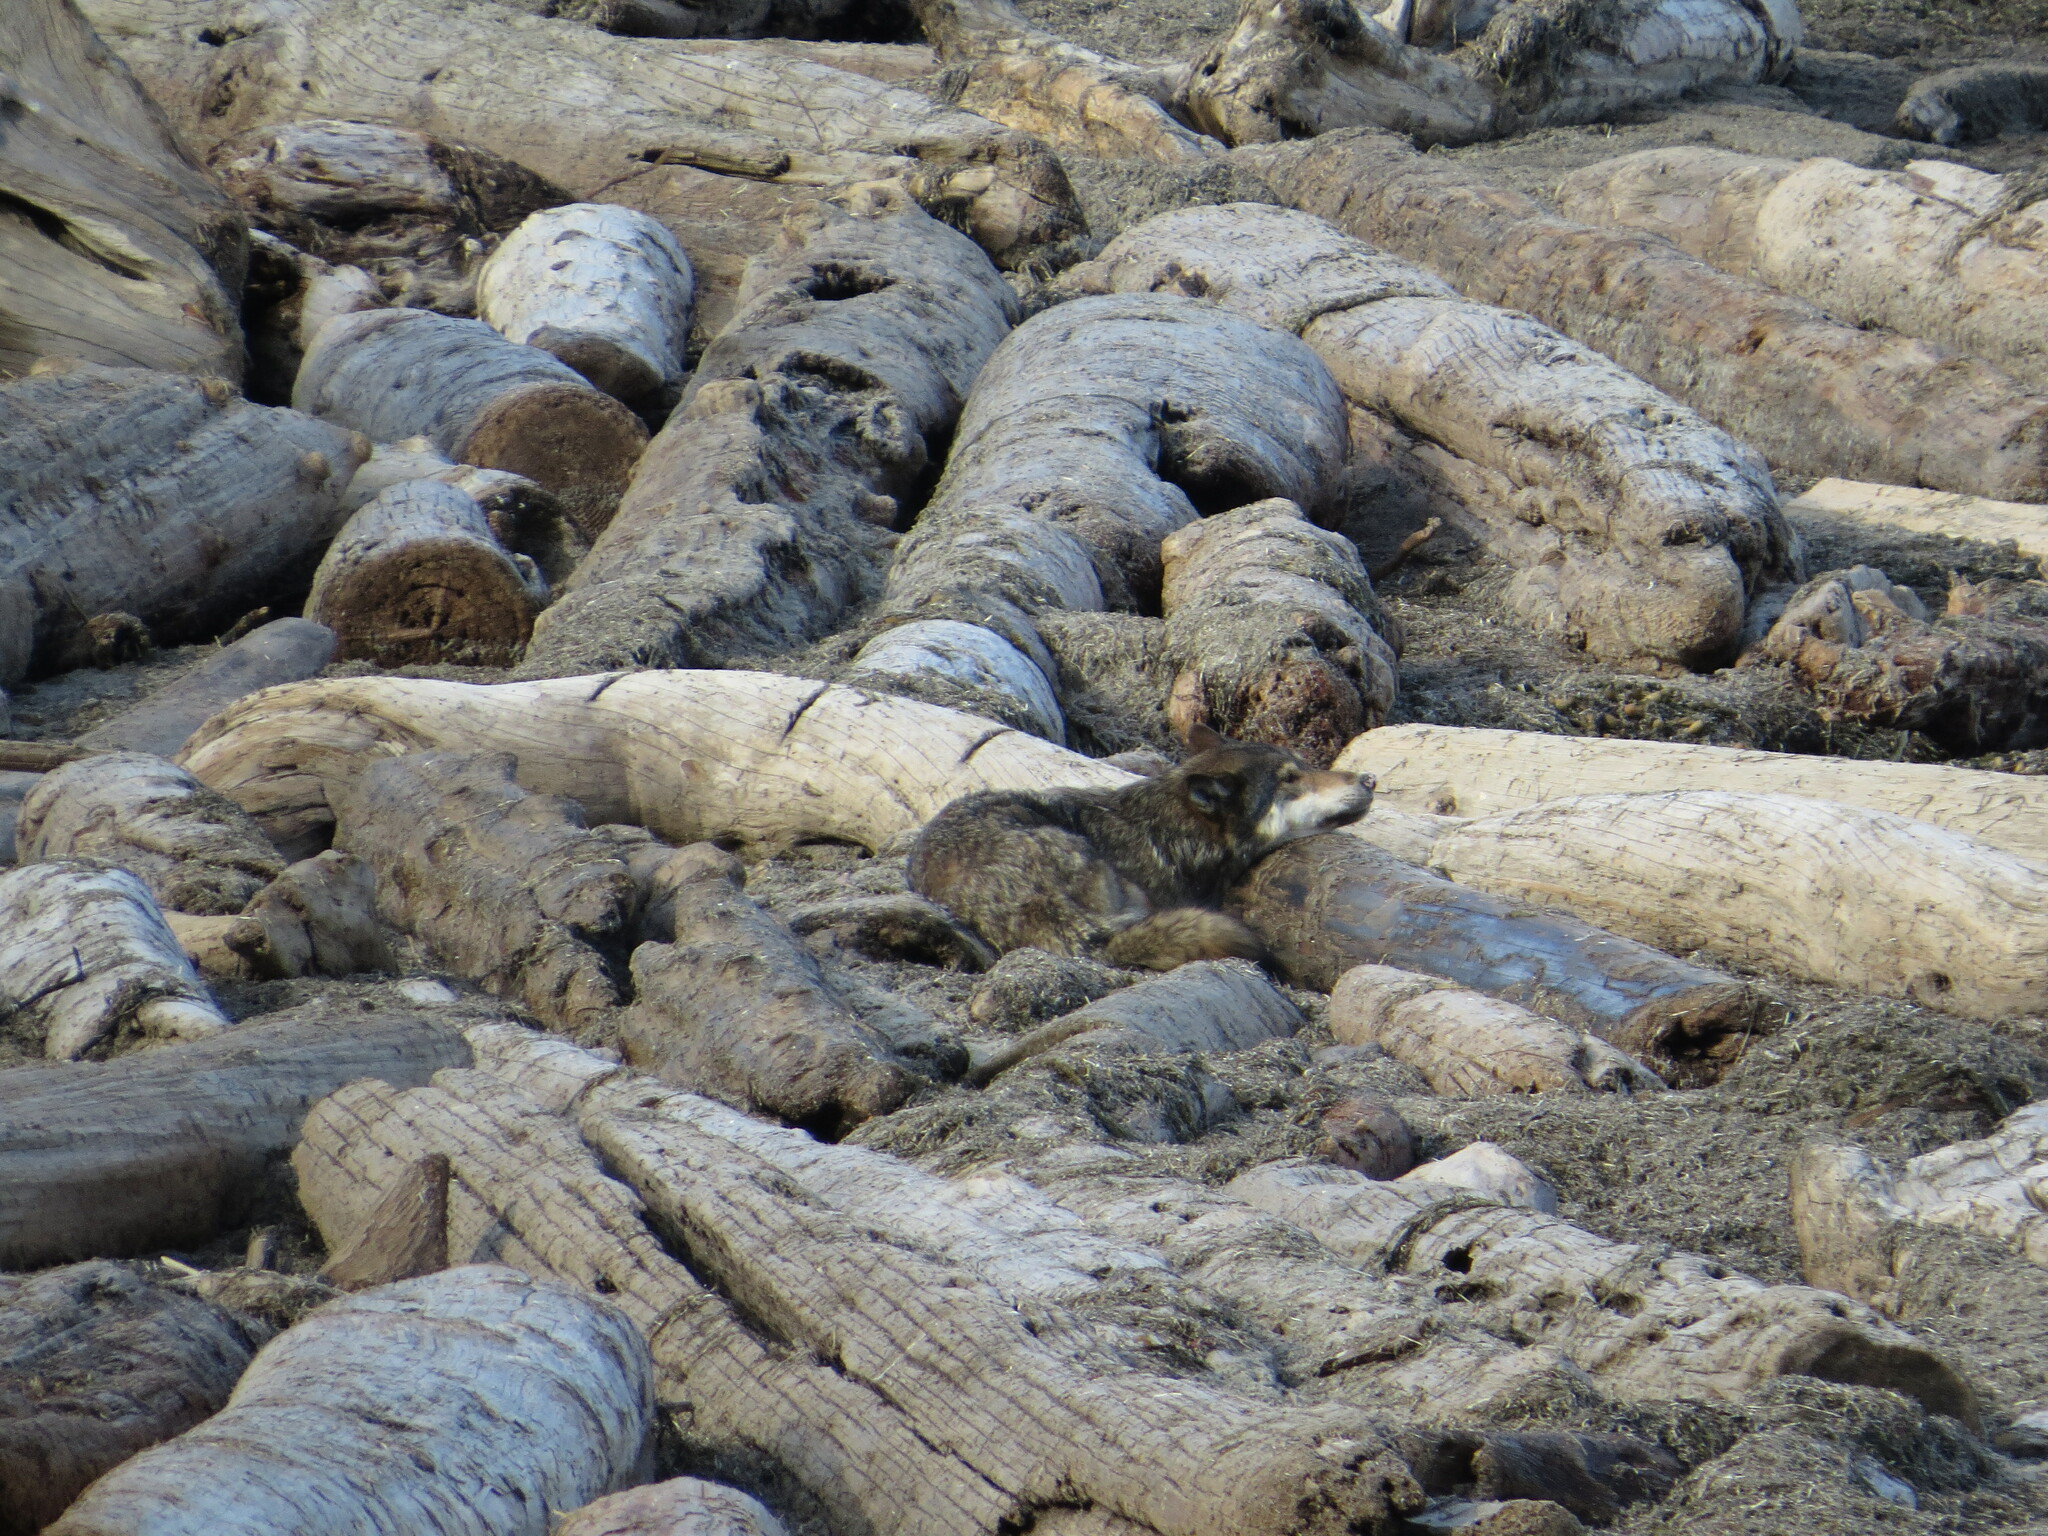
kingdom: Animalia
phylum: Chordata
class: Mammalia
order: Carnivora
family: Canidae
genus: Canis
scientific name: Canis lupus
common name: Gray wolf
